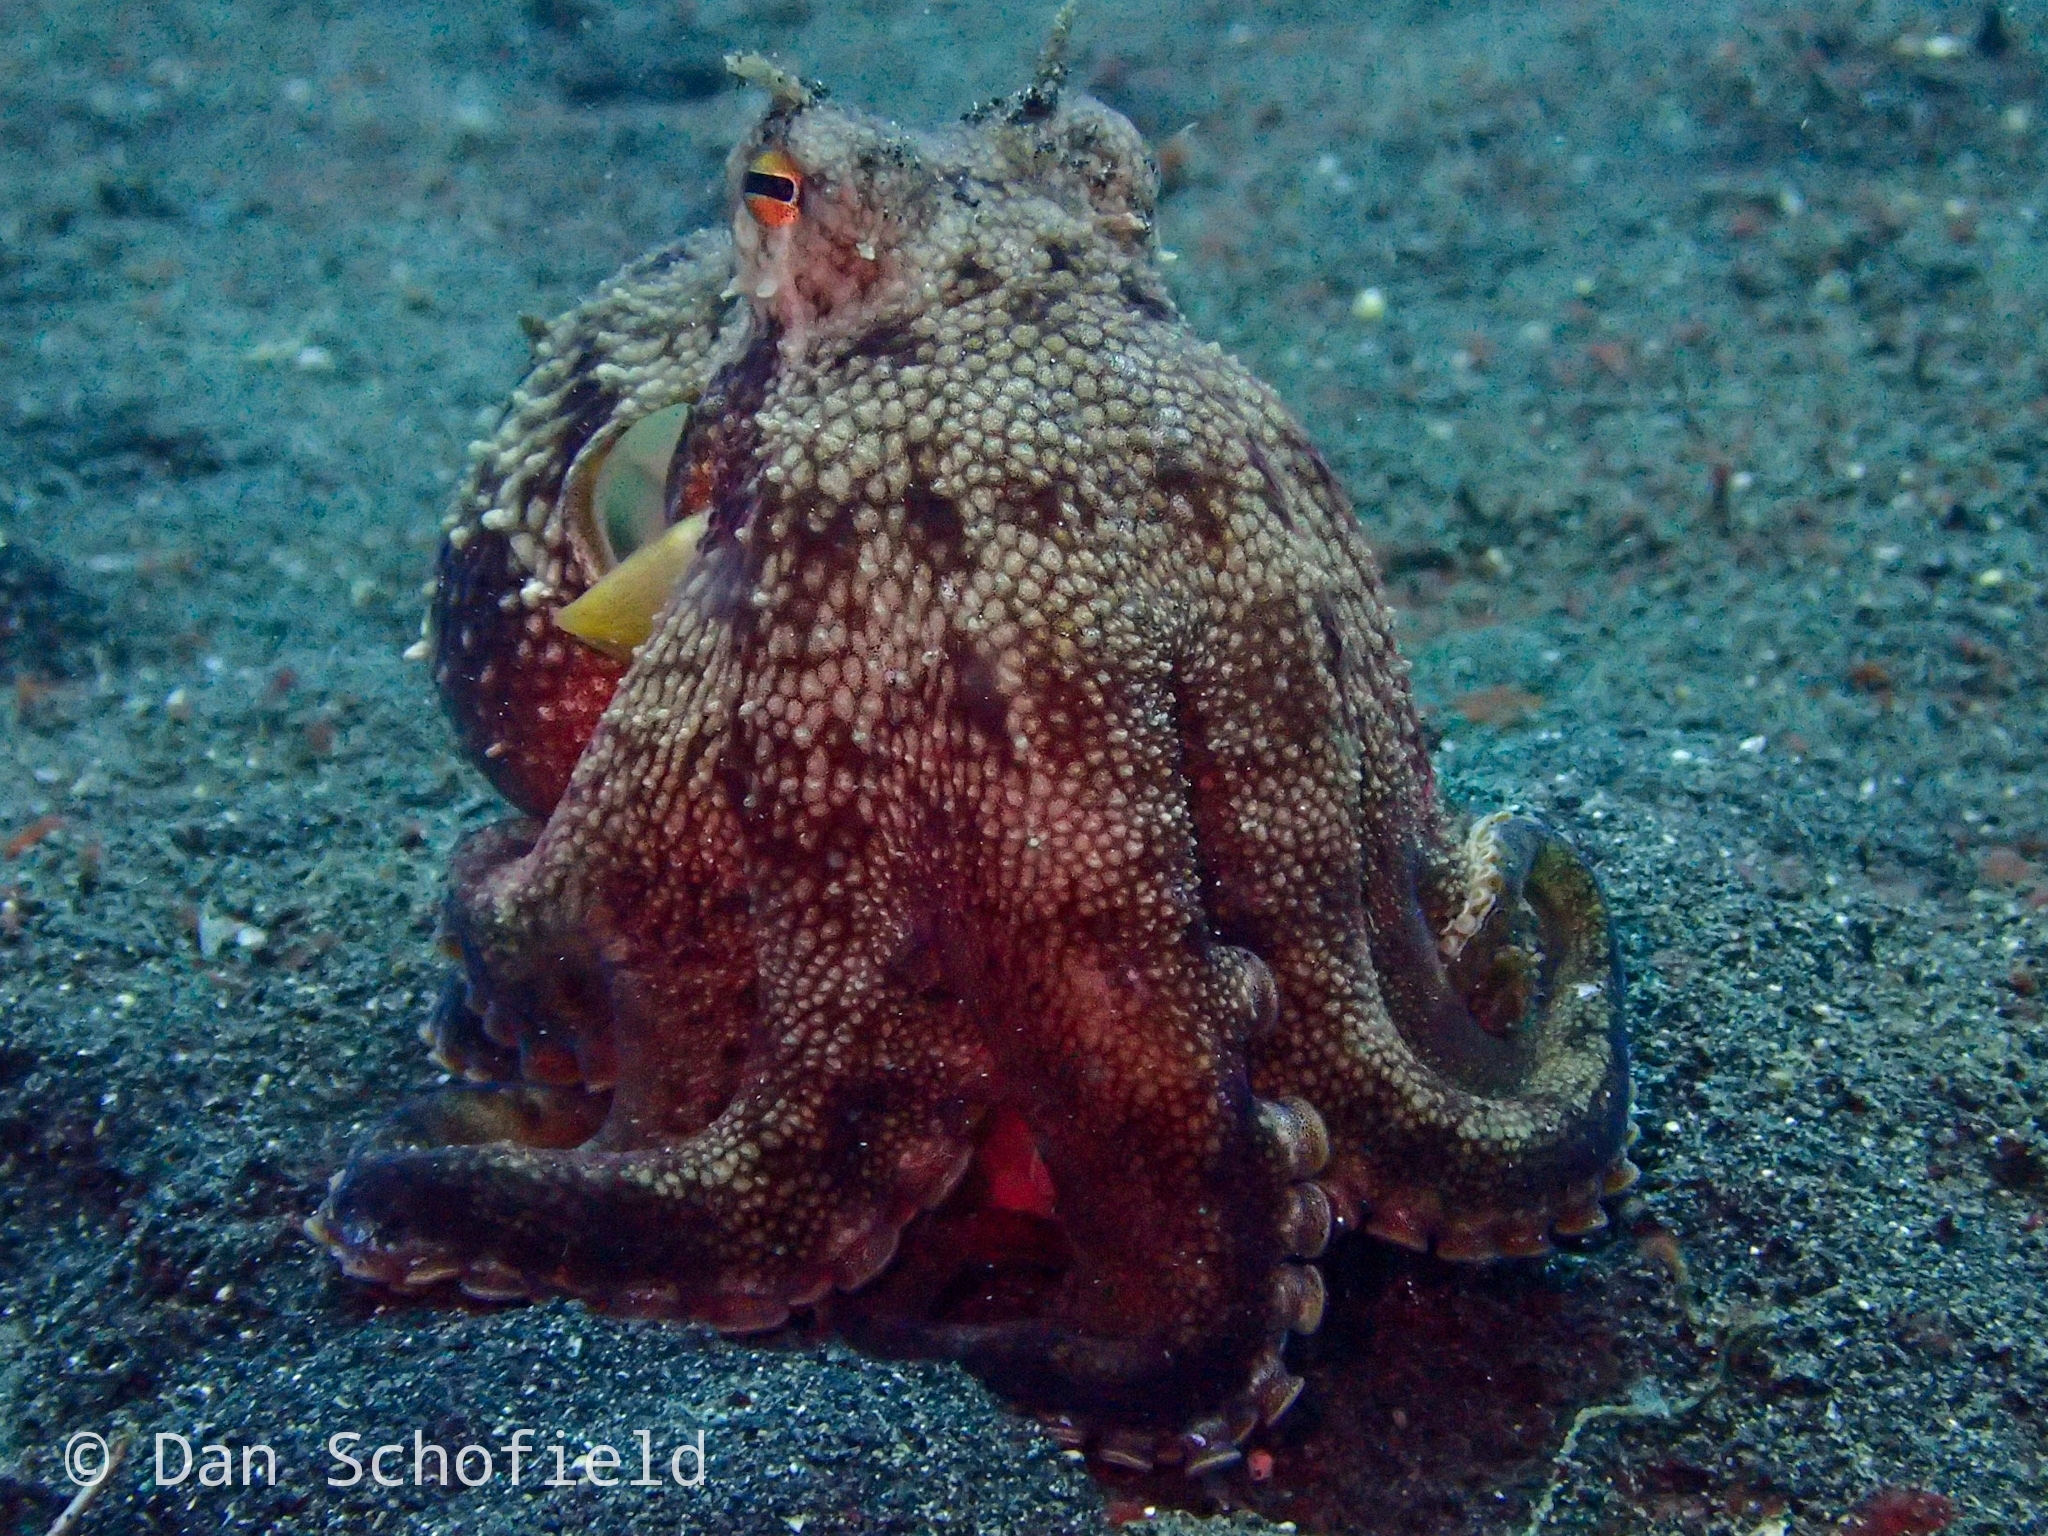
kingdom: Animalia
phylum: Mollusca
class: Cephalopoda
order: Octopoda
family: Octopodidae
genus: Amphioctopus
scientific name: Amphioctopus marginatus
